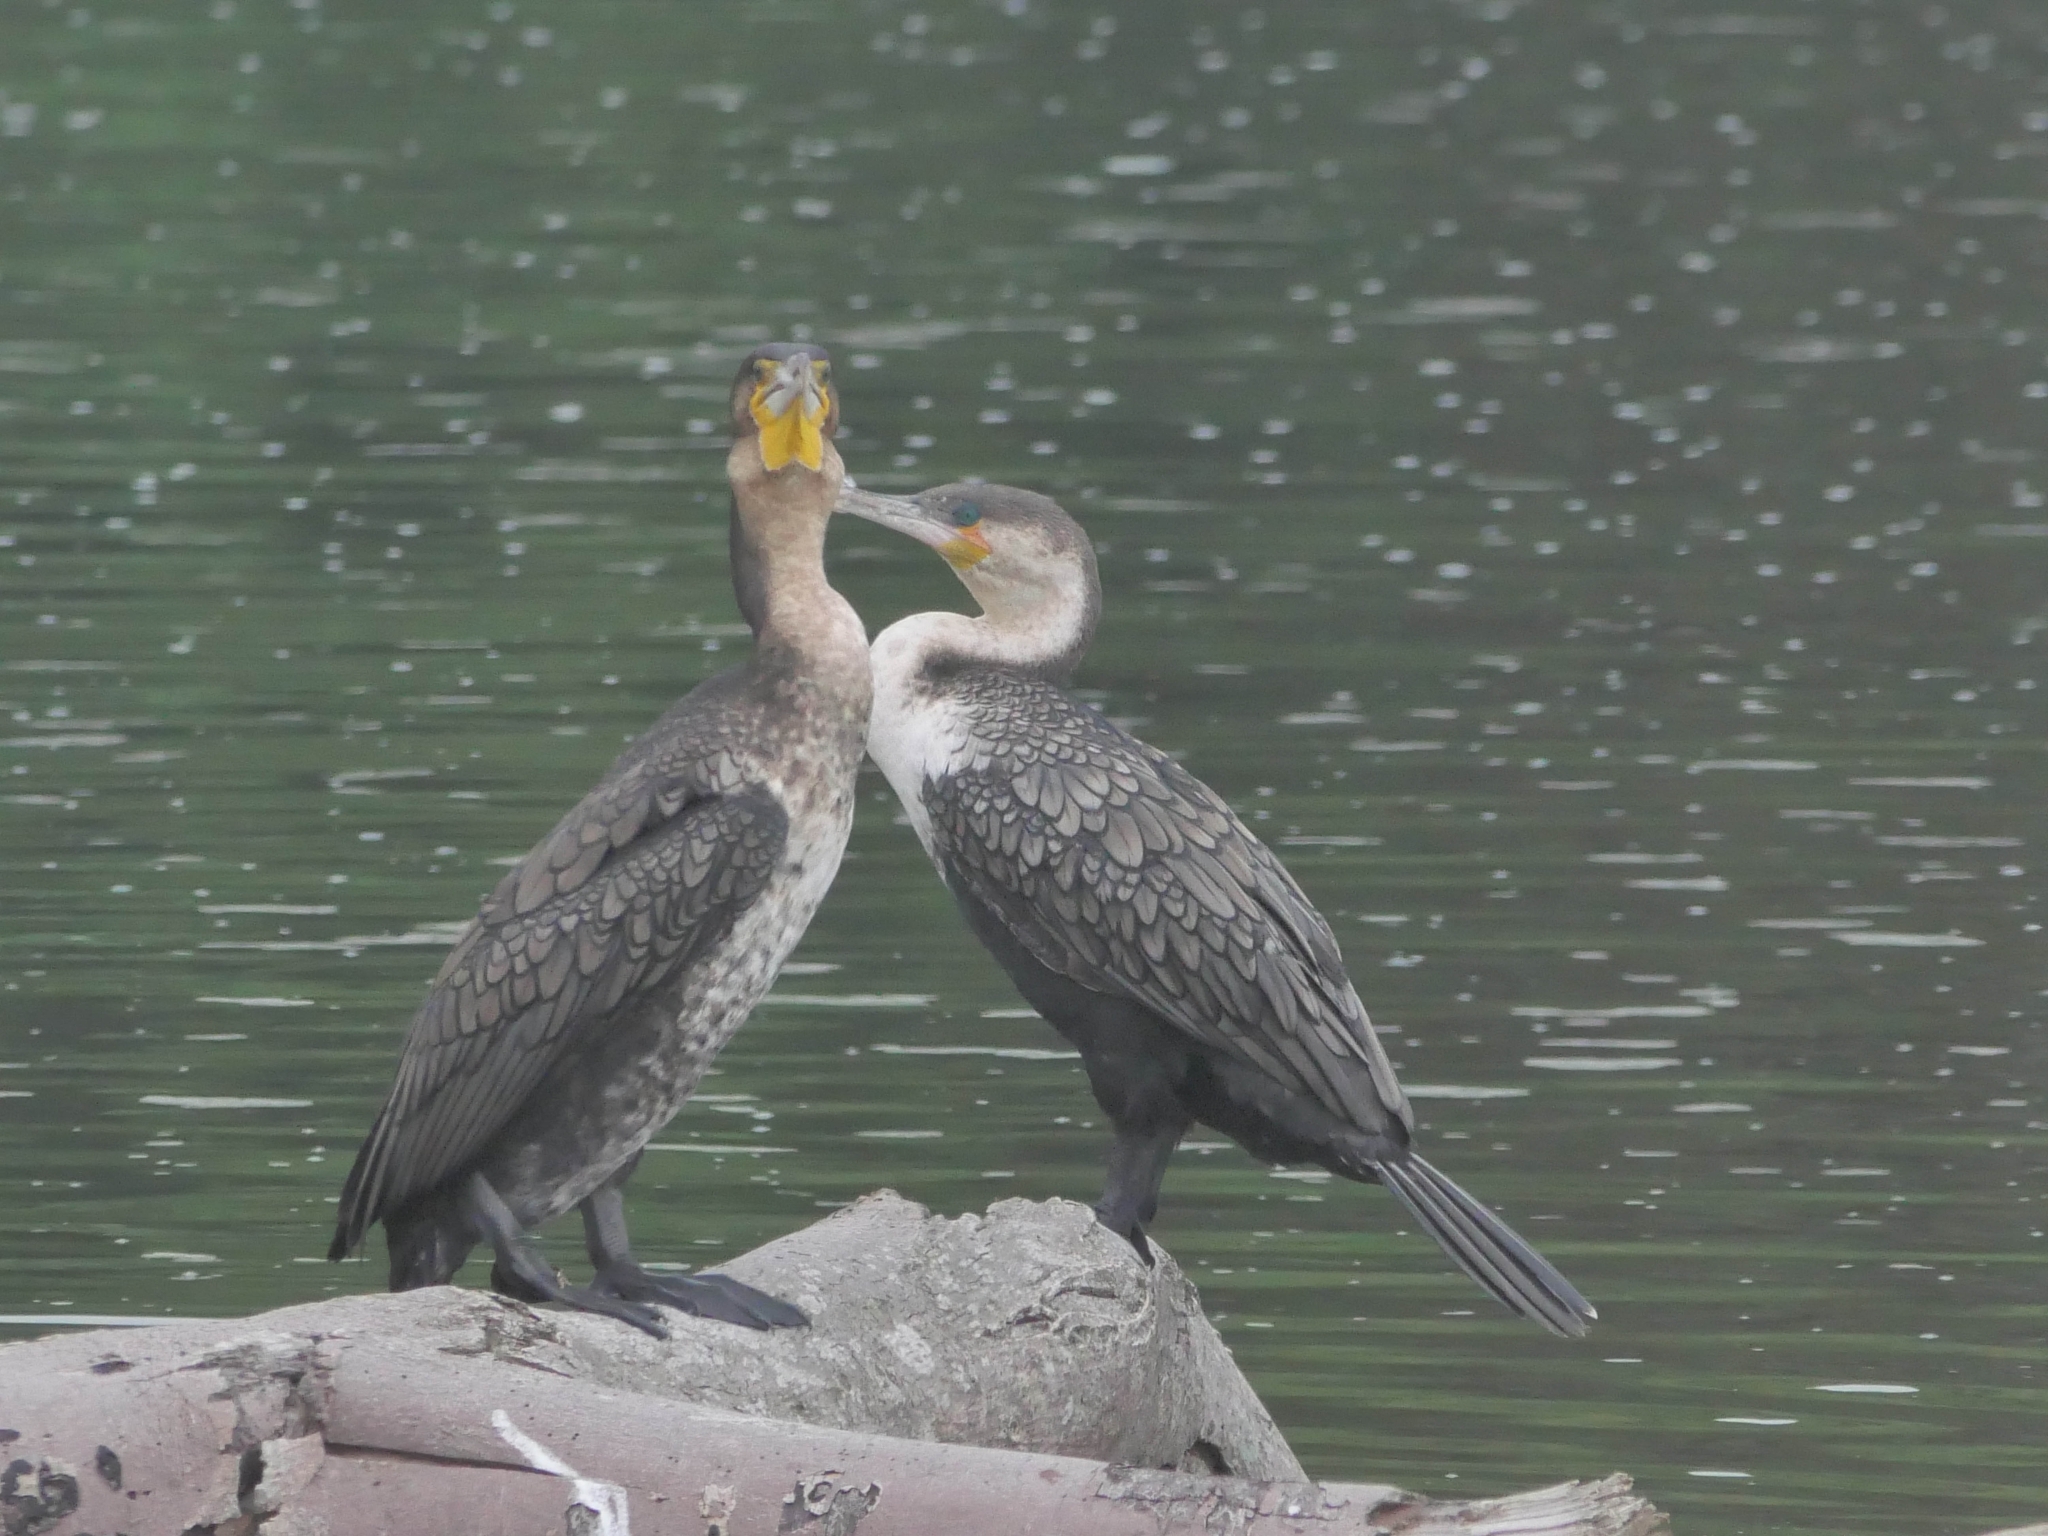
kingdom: Animalia
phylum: Chordata
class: Aves
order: Suliformes
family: Phalacrocoracidae
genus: Phalacrocorax
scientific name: Phalacrocorax carbo
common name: Great cormorant
